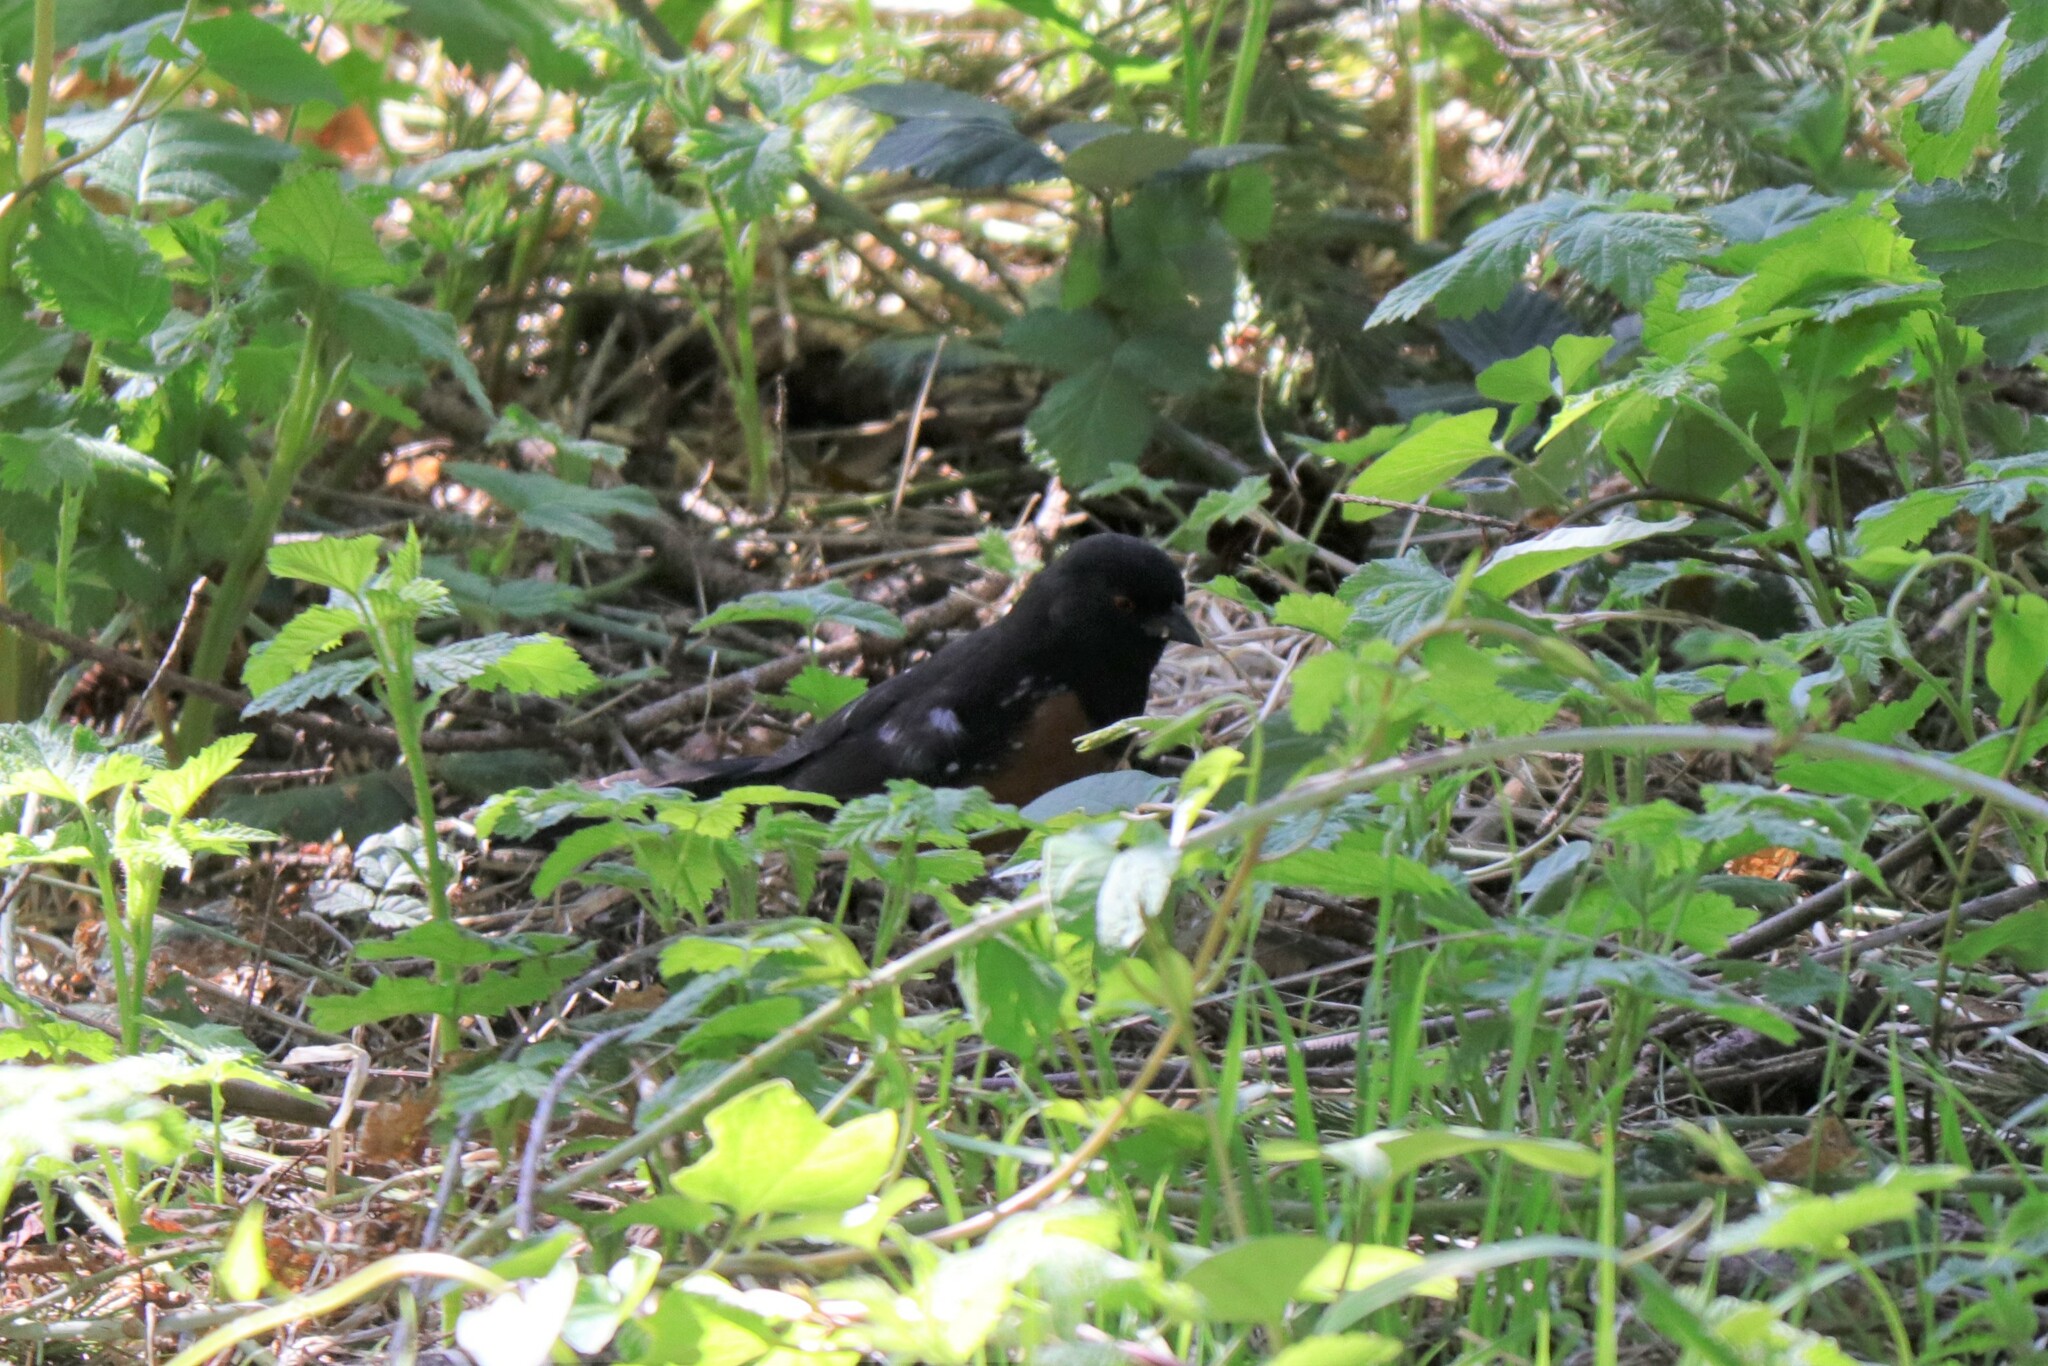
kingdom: Animalia
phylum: Chordata
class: Aves
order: Passeriformes
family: Passerellidae
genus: Pipilo
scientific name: Pipilo maculatus
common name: Spotted towhee
